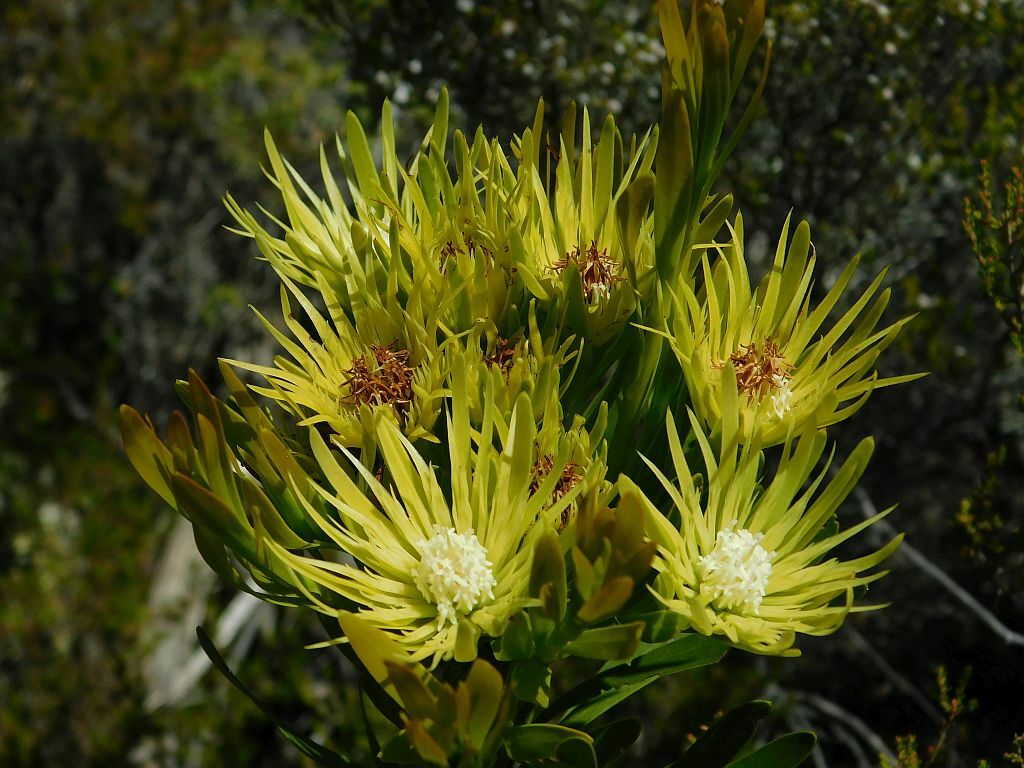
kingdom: Plantae
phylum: Tracheophyta
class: Magnoliopsida
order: Proteales
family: Proteaceae
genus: Aulax
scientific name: Aulax umbellata
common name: Broad-leaf featherbush
